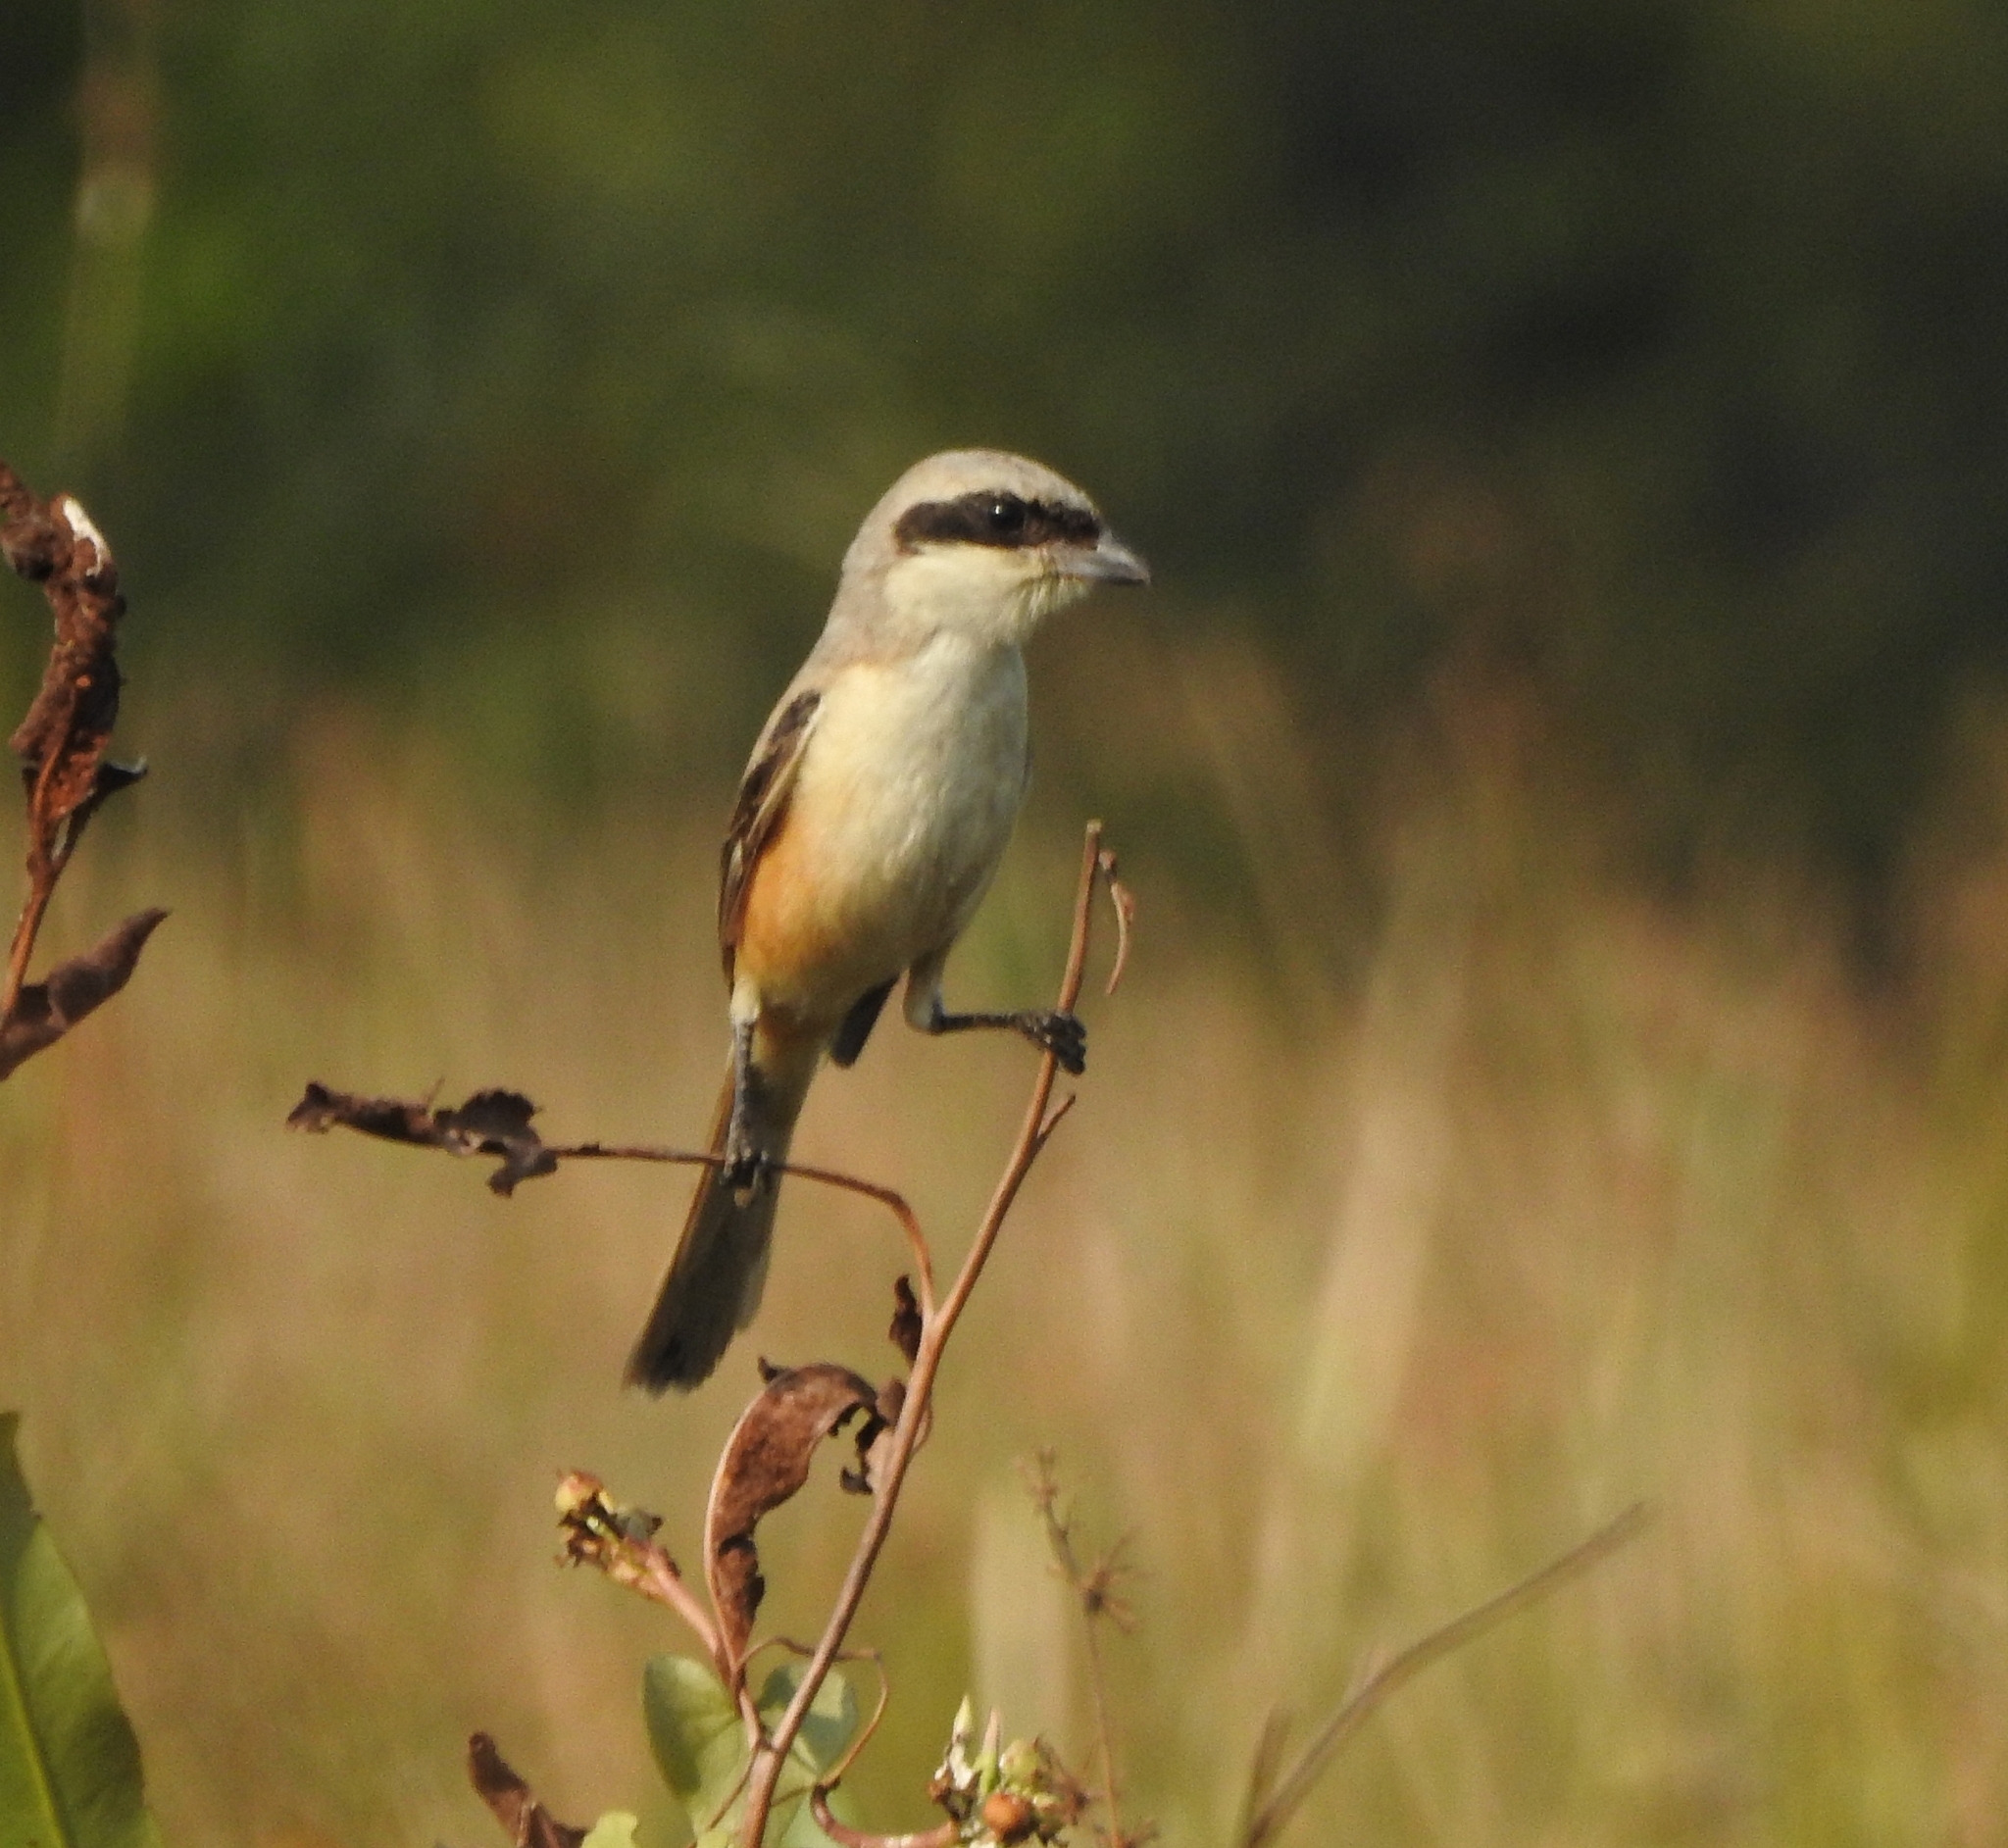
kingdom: Animalia
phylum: Chordata
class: Aves
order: Passeriformes
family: Laniidae
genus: Lanius
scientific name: Lanius schach
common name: Long-tailed shrike
